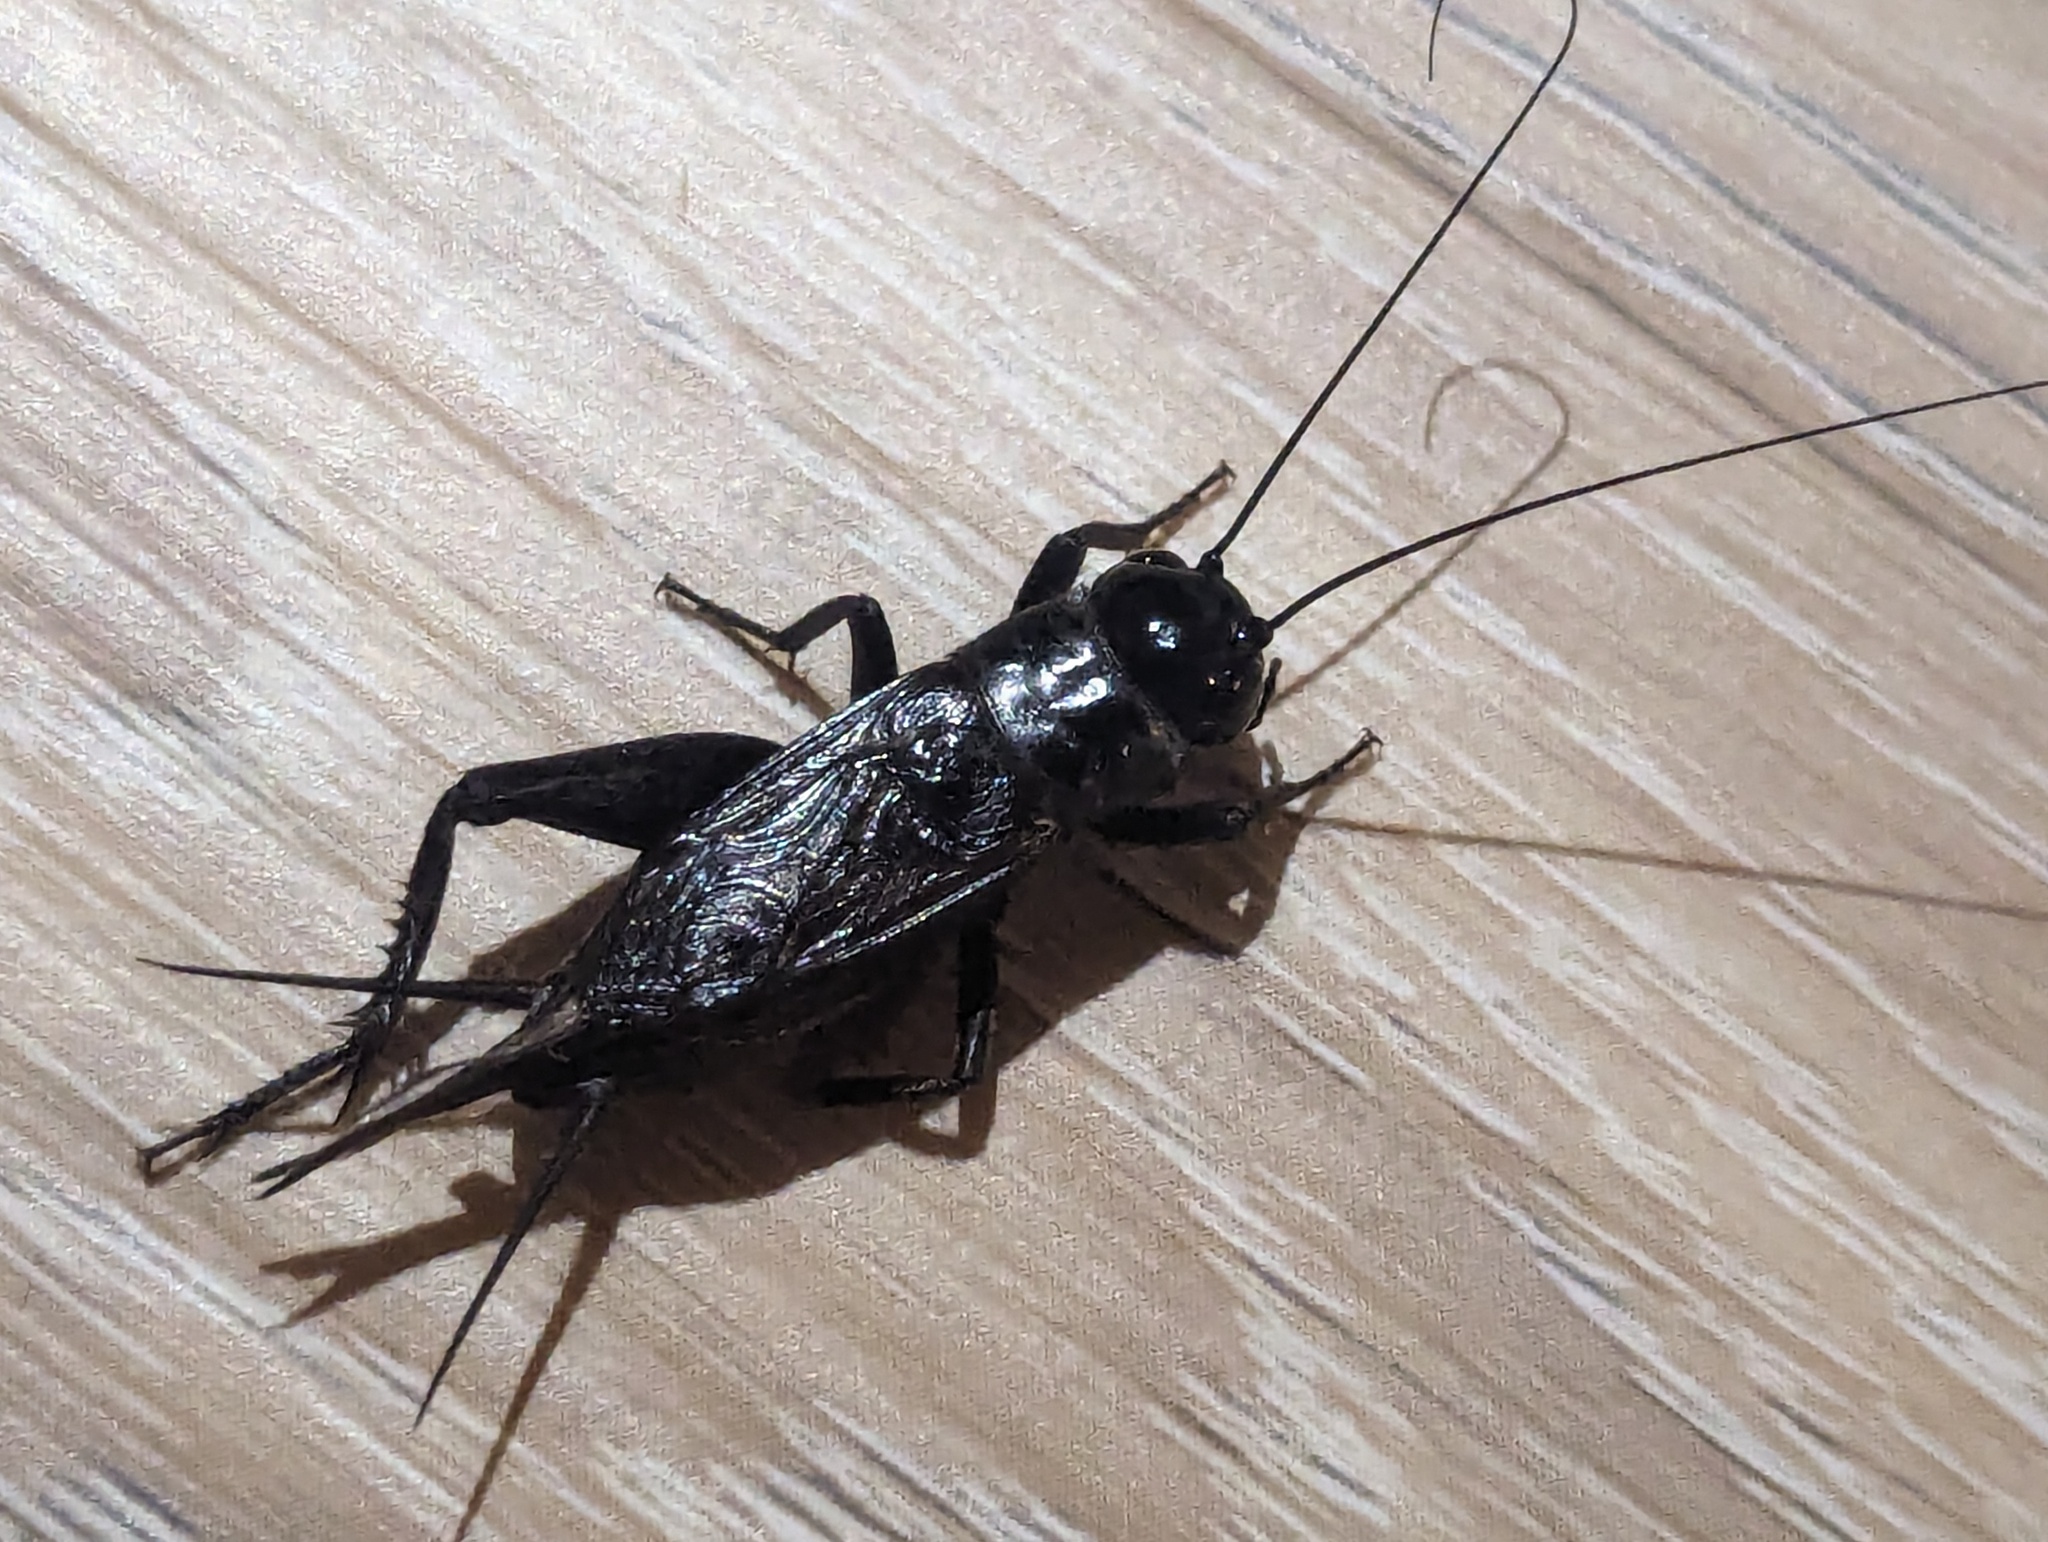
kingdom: Animalia
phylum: Arthropoda
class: Insecta
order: Orthoptera
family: Gryllidae
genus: Teleogryllus
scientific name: Teleogryllus commodus
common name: Black field cricket
